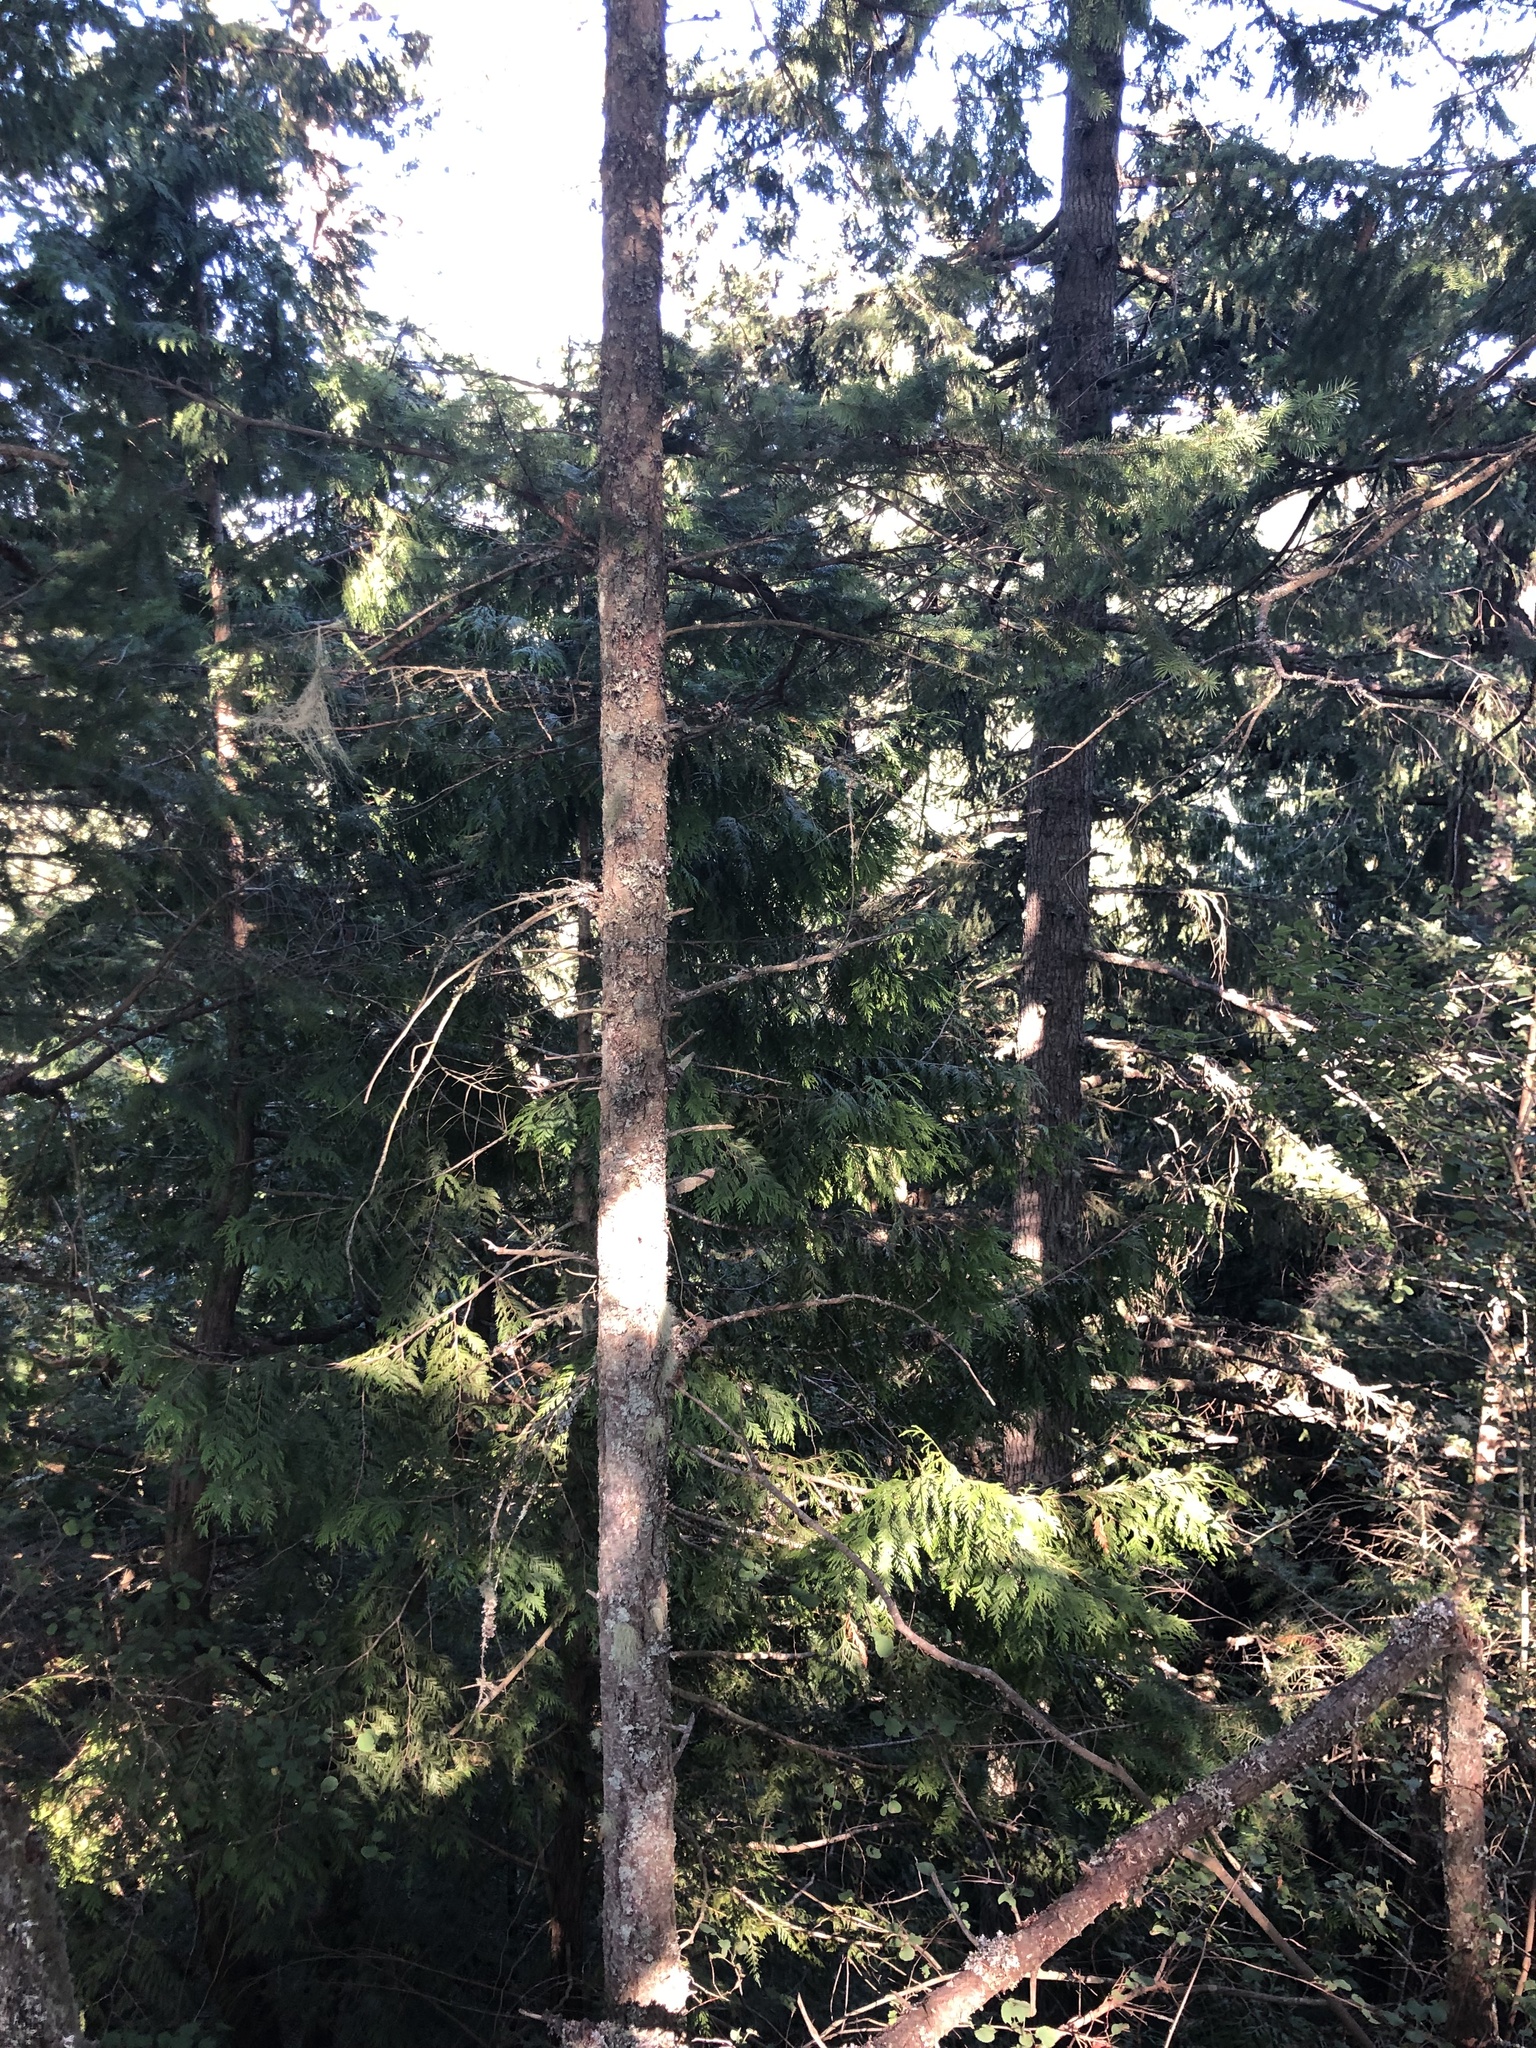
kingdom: Plantae
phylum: Tracheophyta
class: Pinopsida
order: Pinales
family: Cupressaceae
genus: Thuja
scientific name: Thuja plicata
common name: Western red-cedar
